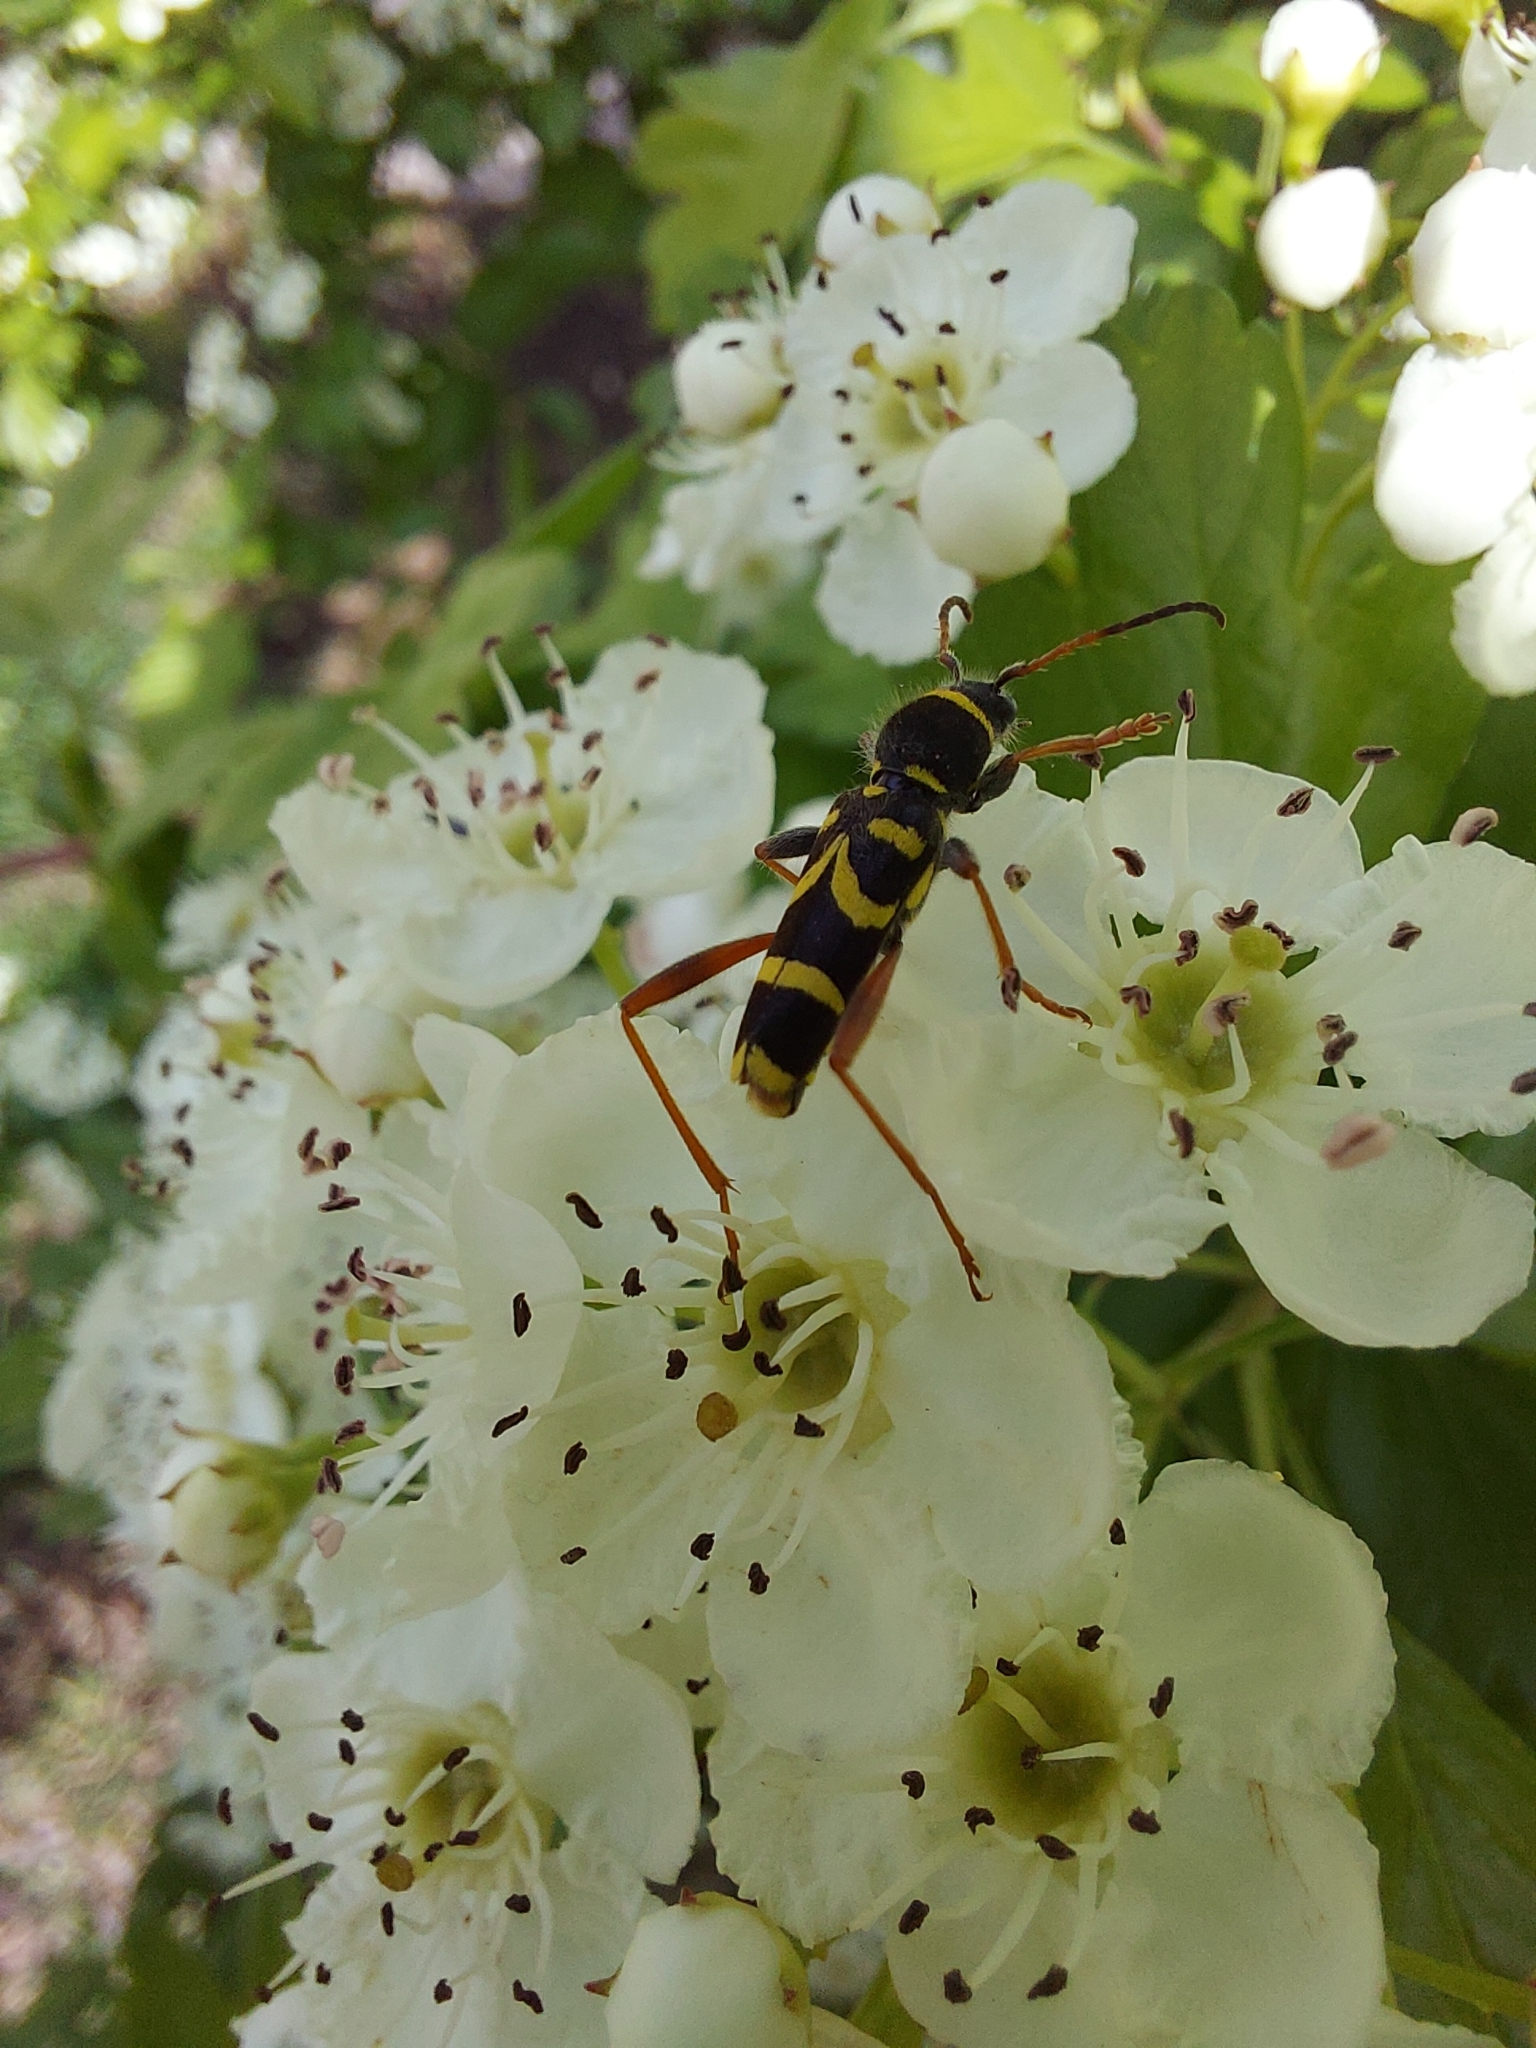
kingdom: Animalia
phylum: Arthropoda
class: Insecta
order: Coleoptera
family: Cerambycidae
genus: Clytus
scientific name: Clytus arietis
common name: Wasp beetle
